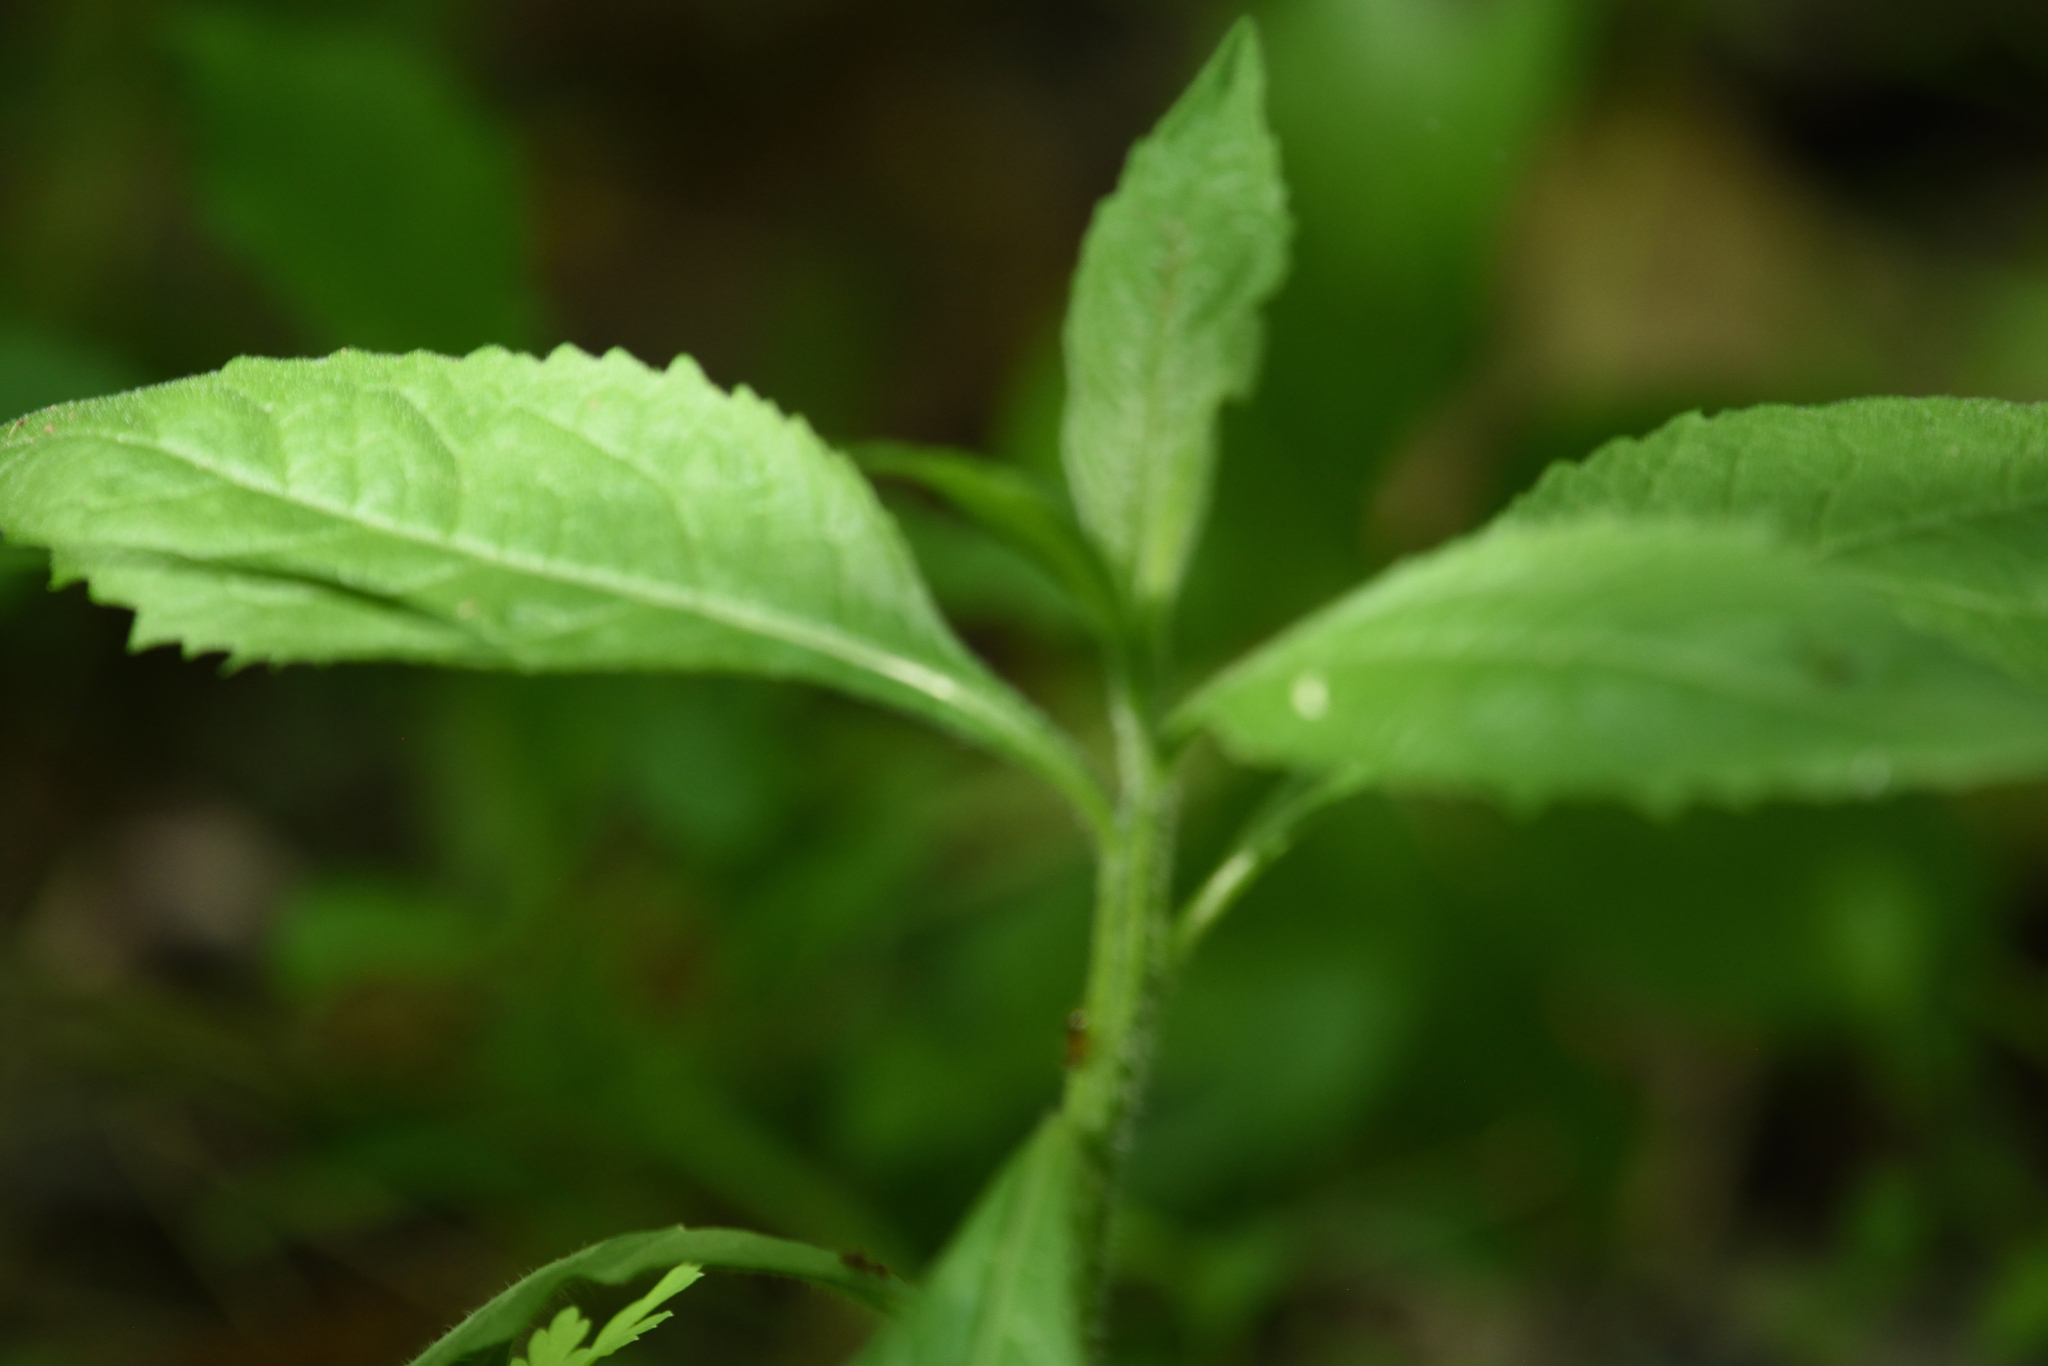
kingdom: Plantae
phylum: Tracheophyta
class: Magnoliopsida
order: Asterales
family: Asteraceae
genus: Verbesina
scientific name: Verbesina alternifolia
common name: Wingstem
